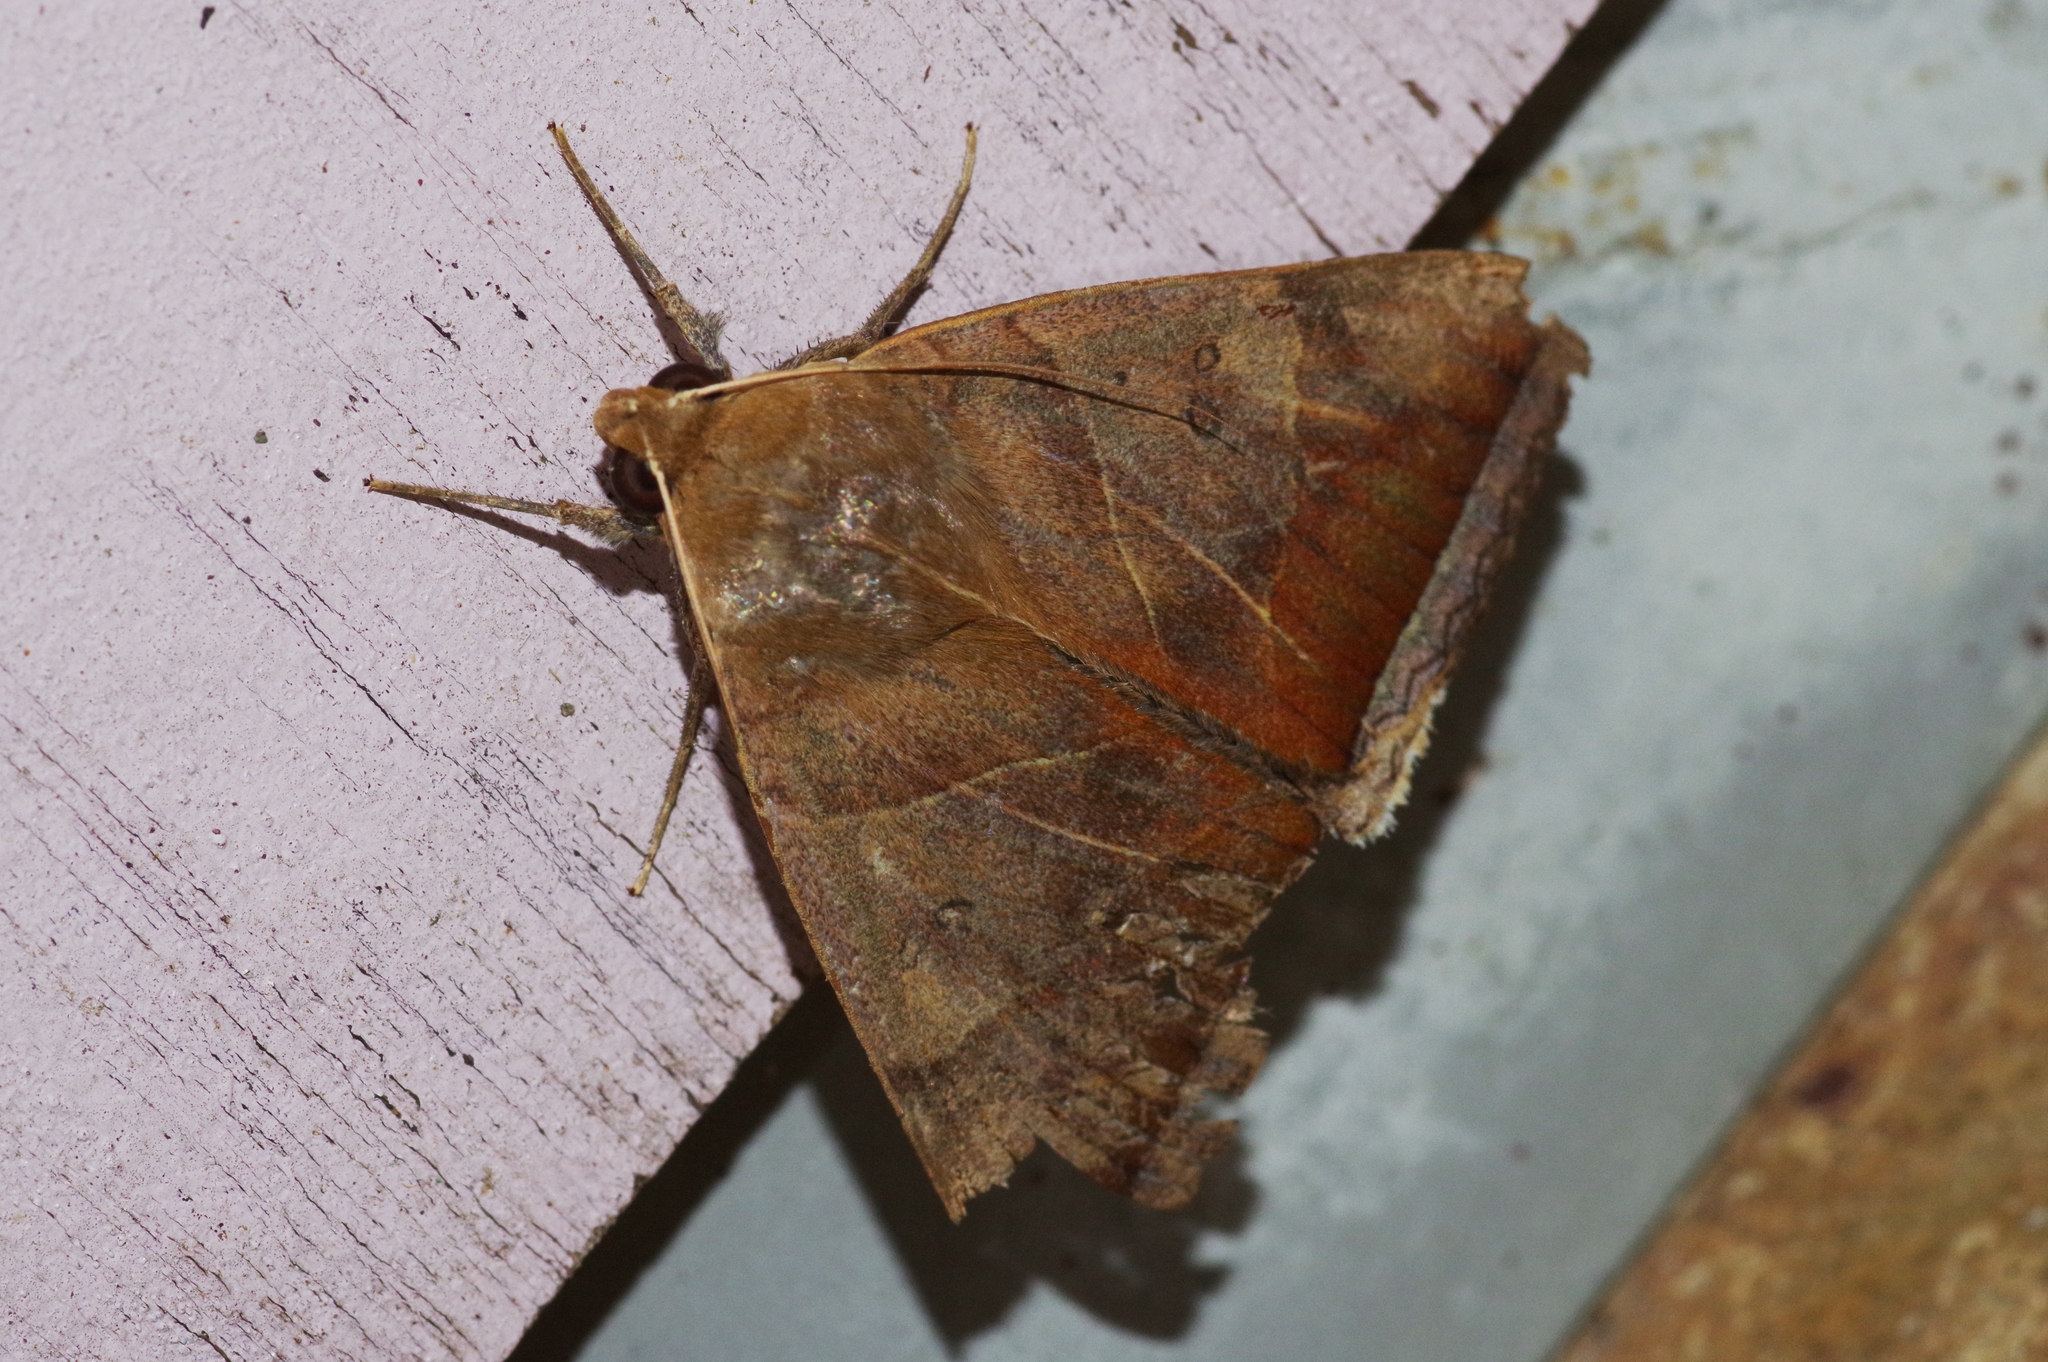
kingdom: Animalia
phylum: Arthropoda
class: Insecta
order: Lepidoptera
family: Erebidae
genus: Artena
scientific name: Artena dotata
